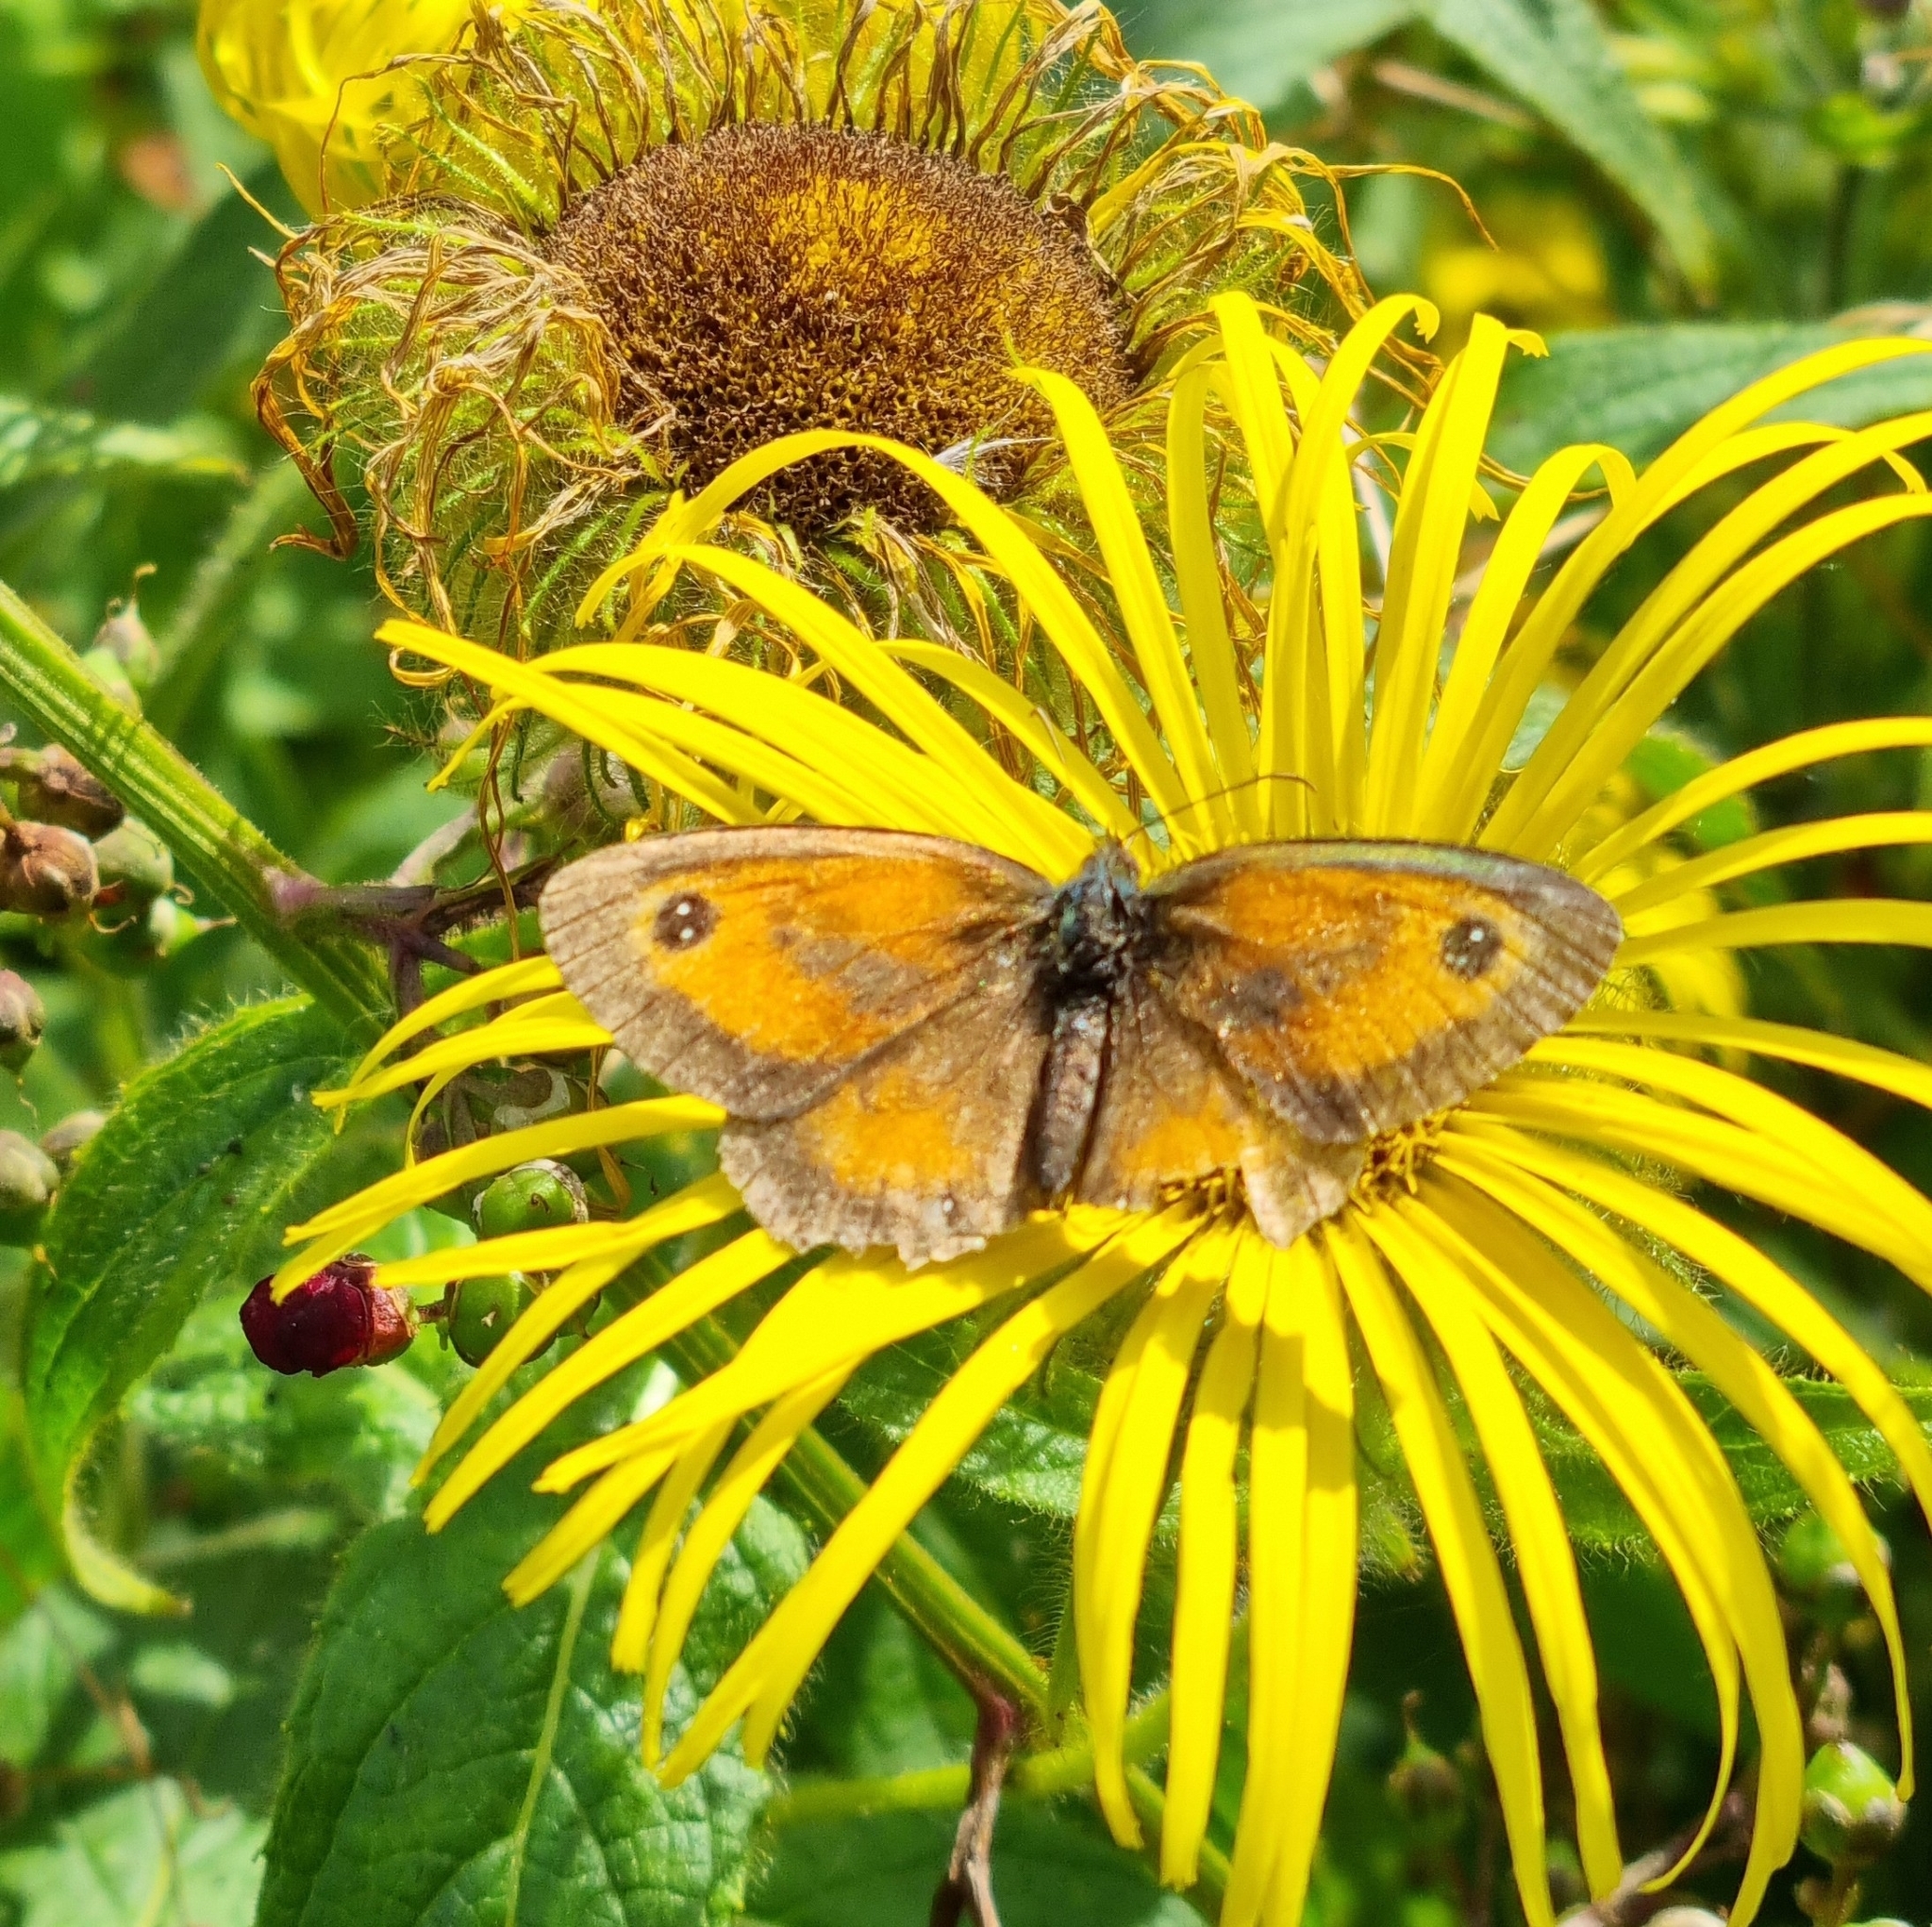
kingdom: Animalia
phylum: Arthropoda
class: Insecta
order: Lepidoptera
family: Nymphalidae
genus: Pyronia
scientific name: Pyronia tithonus
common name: Gatekeeper
